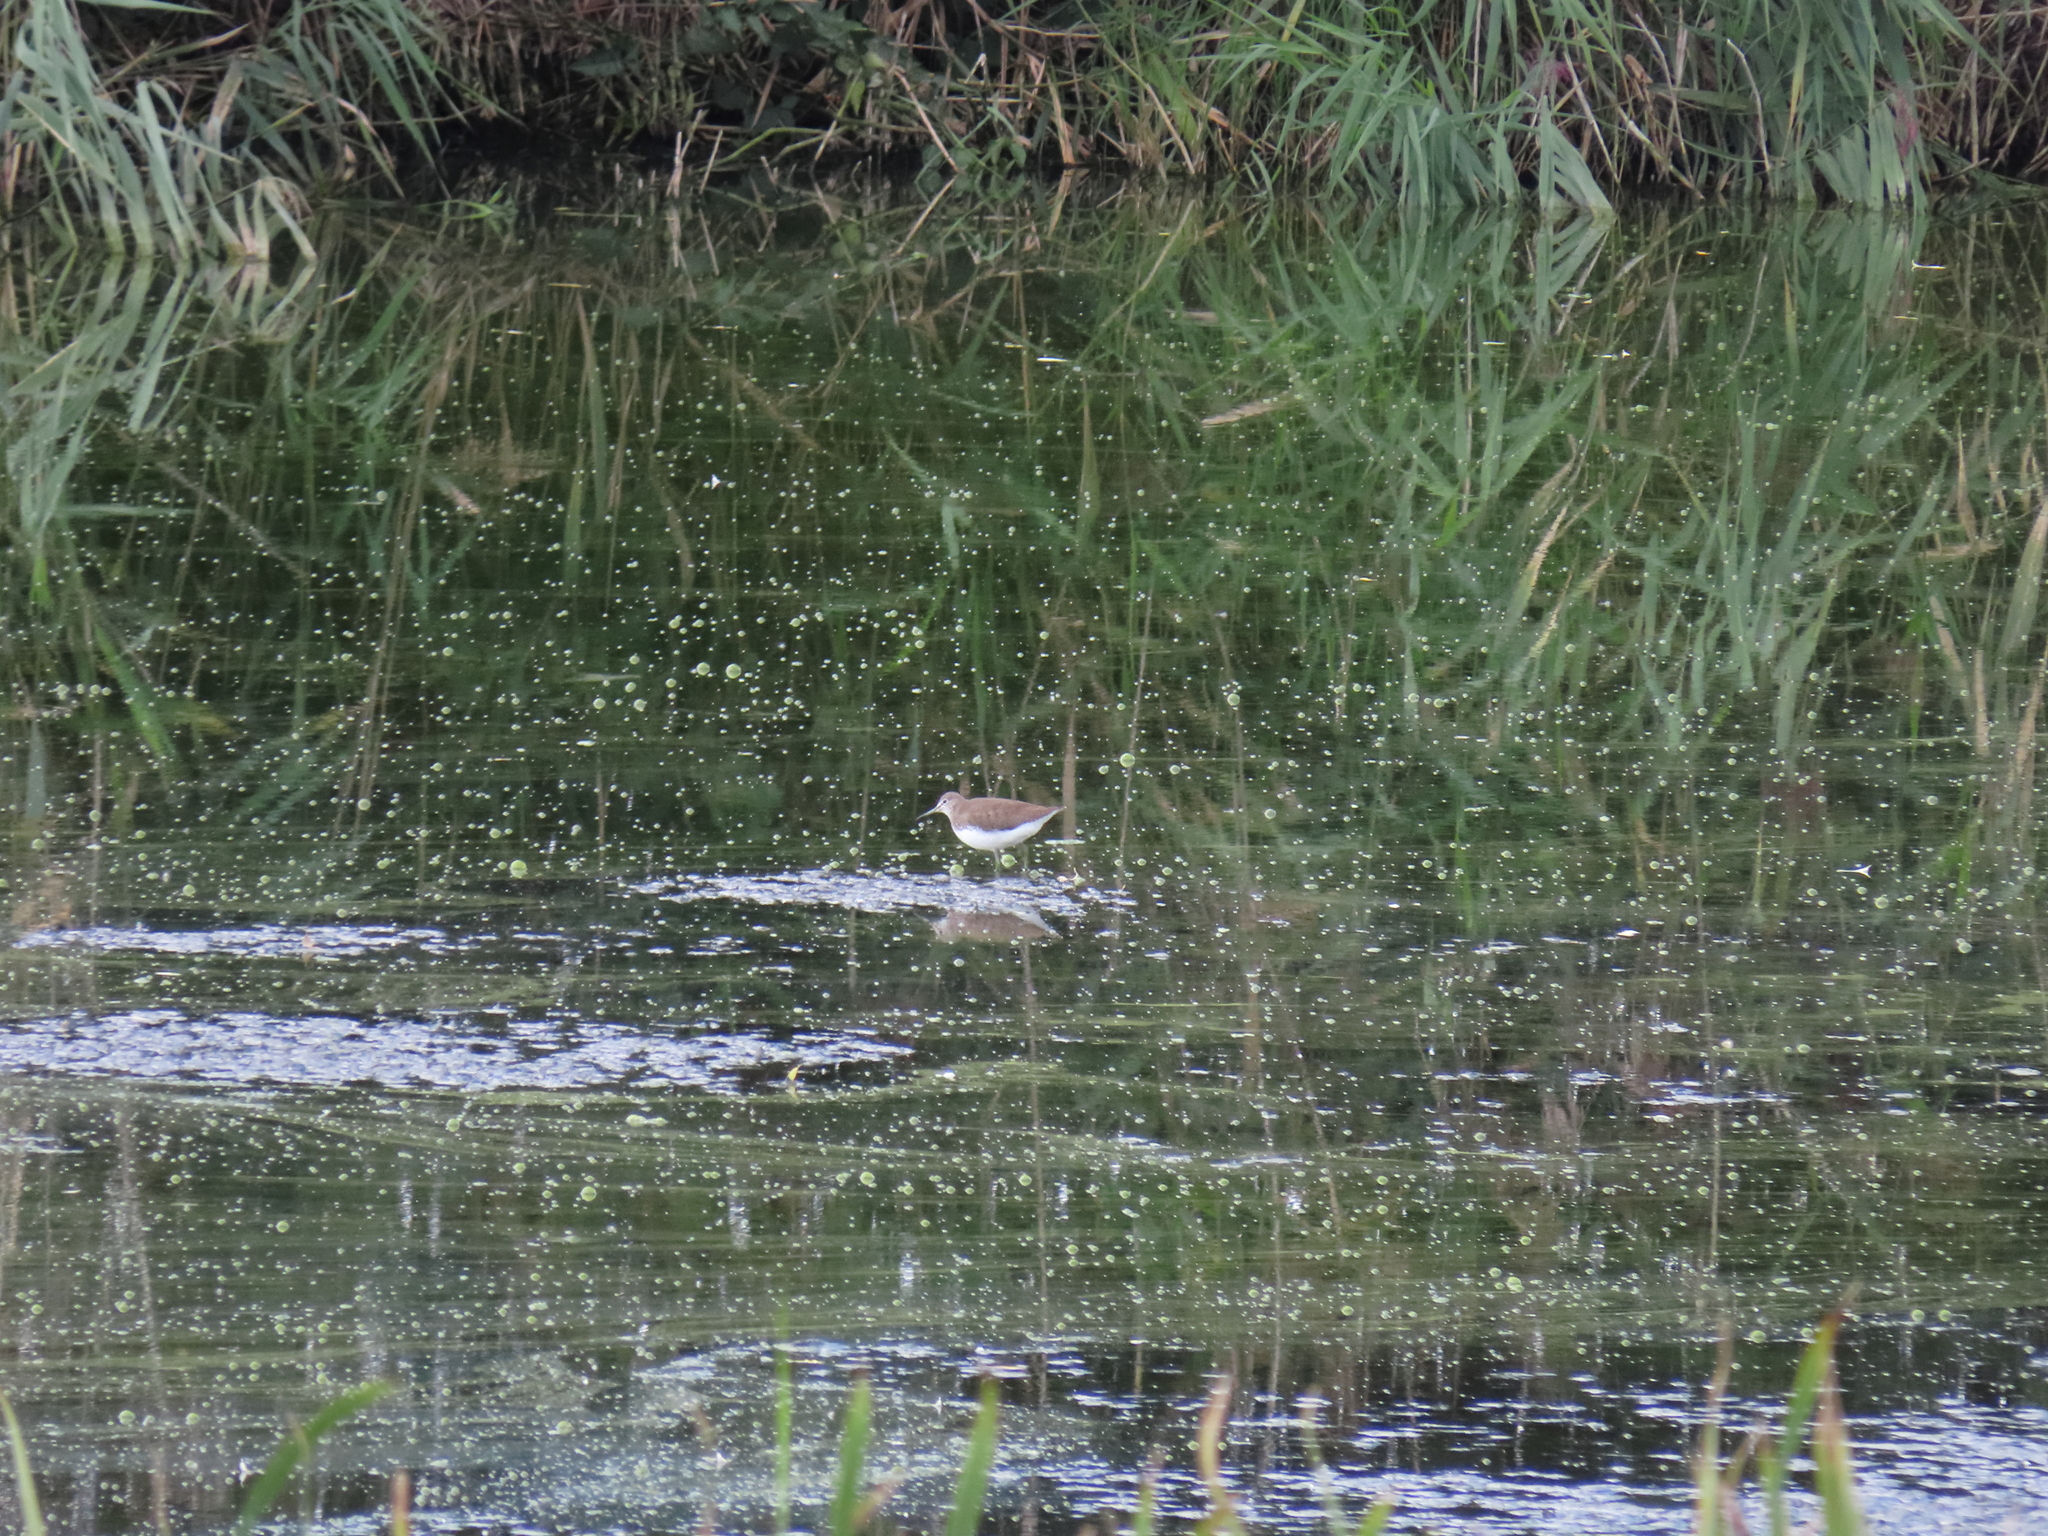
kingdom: Animalia
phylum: Chordata
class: Aves
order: Charadriiformes
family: Scolopacidae
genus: Tringa
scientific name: Tringa ochropus
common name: Green sandpiper
